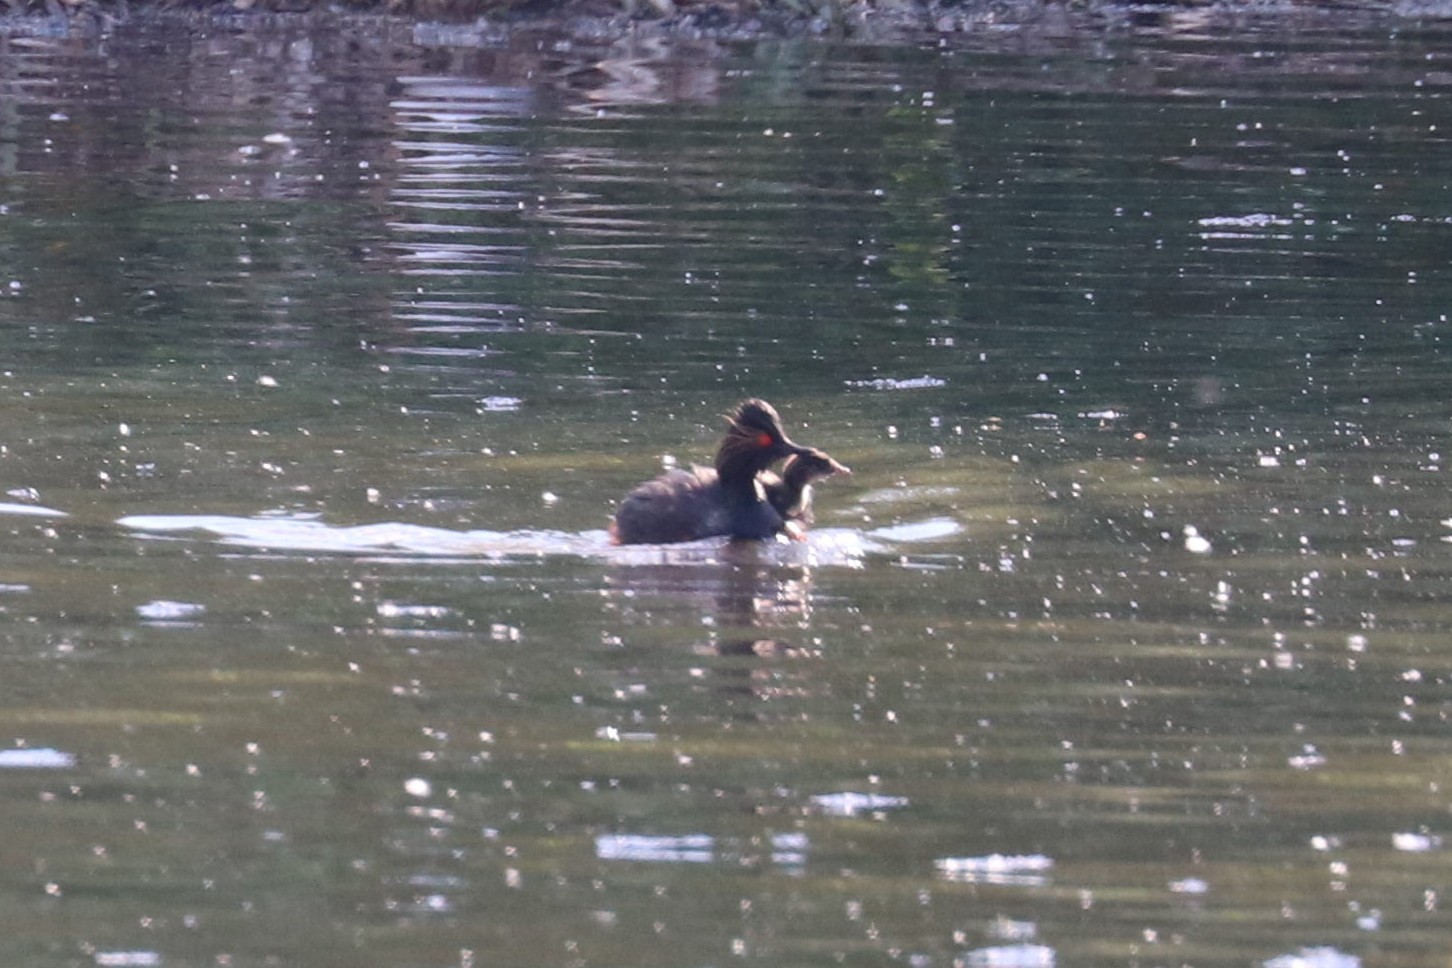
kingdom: Animalia
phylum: Chordata
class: Aves
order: Podicipediformes
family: Podicipedidae
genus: Podiceps
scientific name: Podiceps nigricollis
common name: Black-necked grebe
